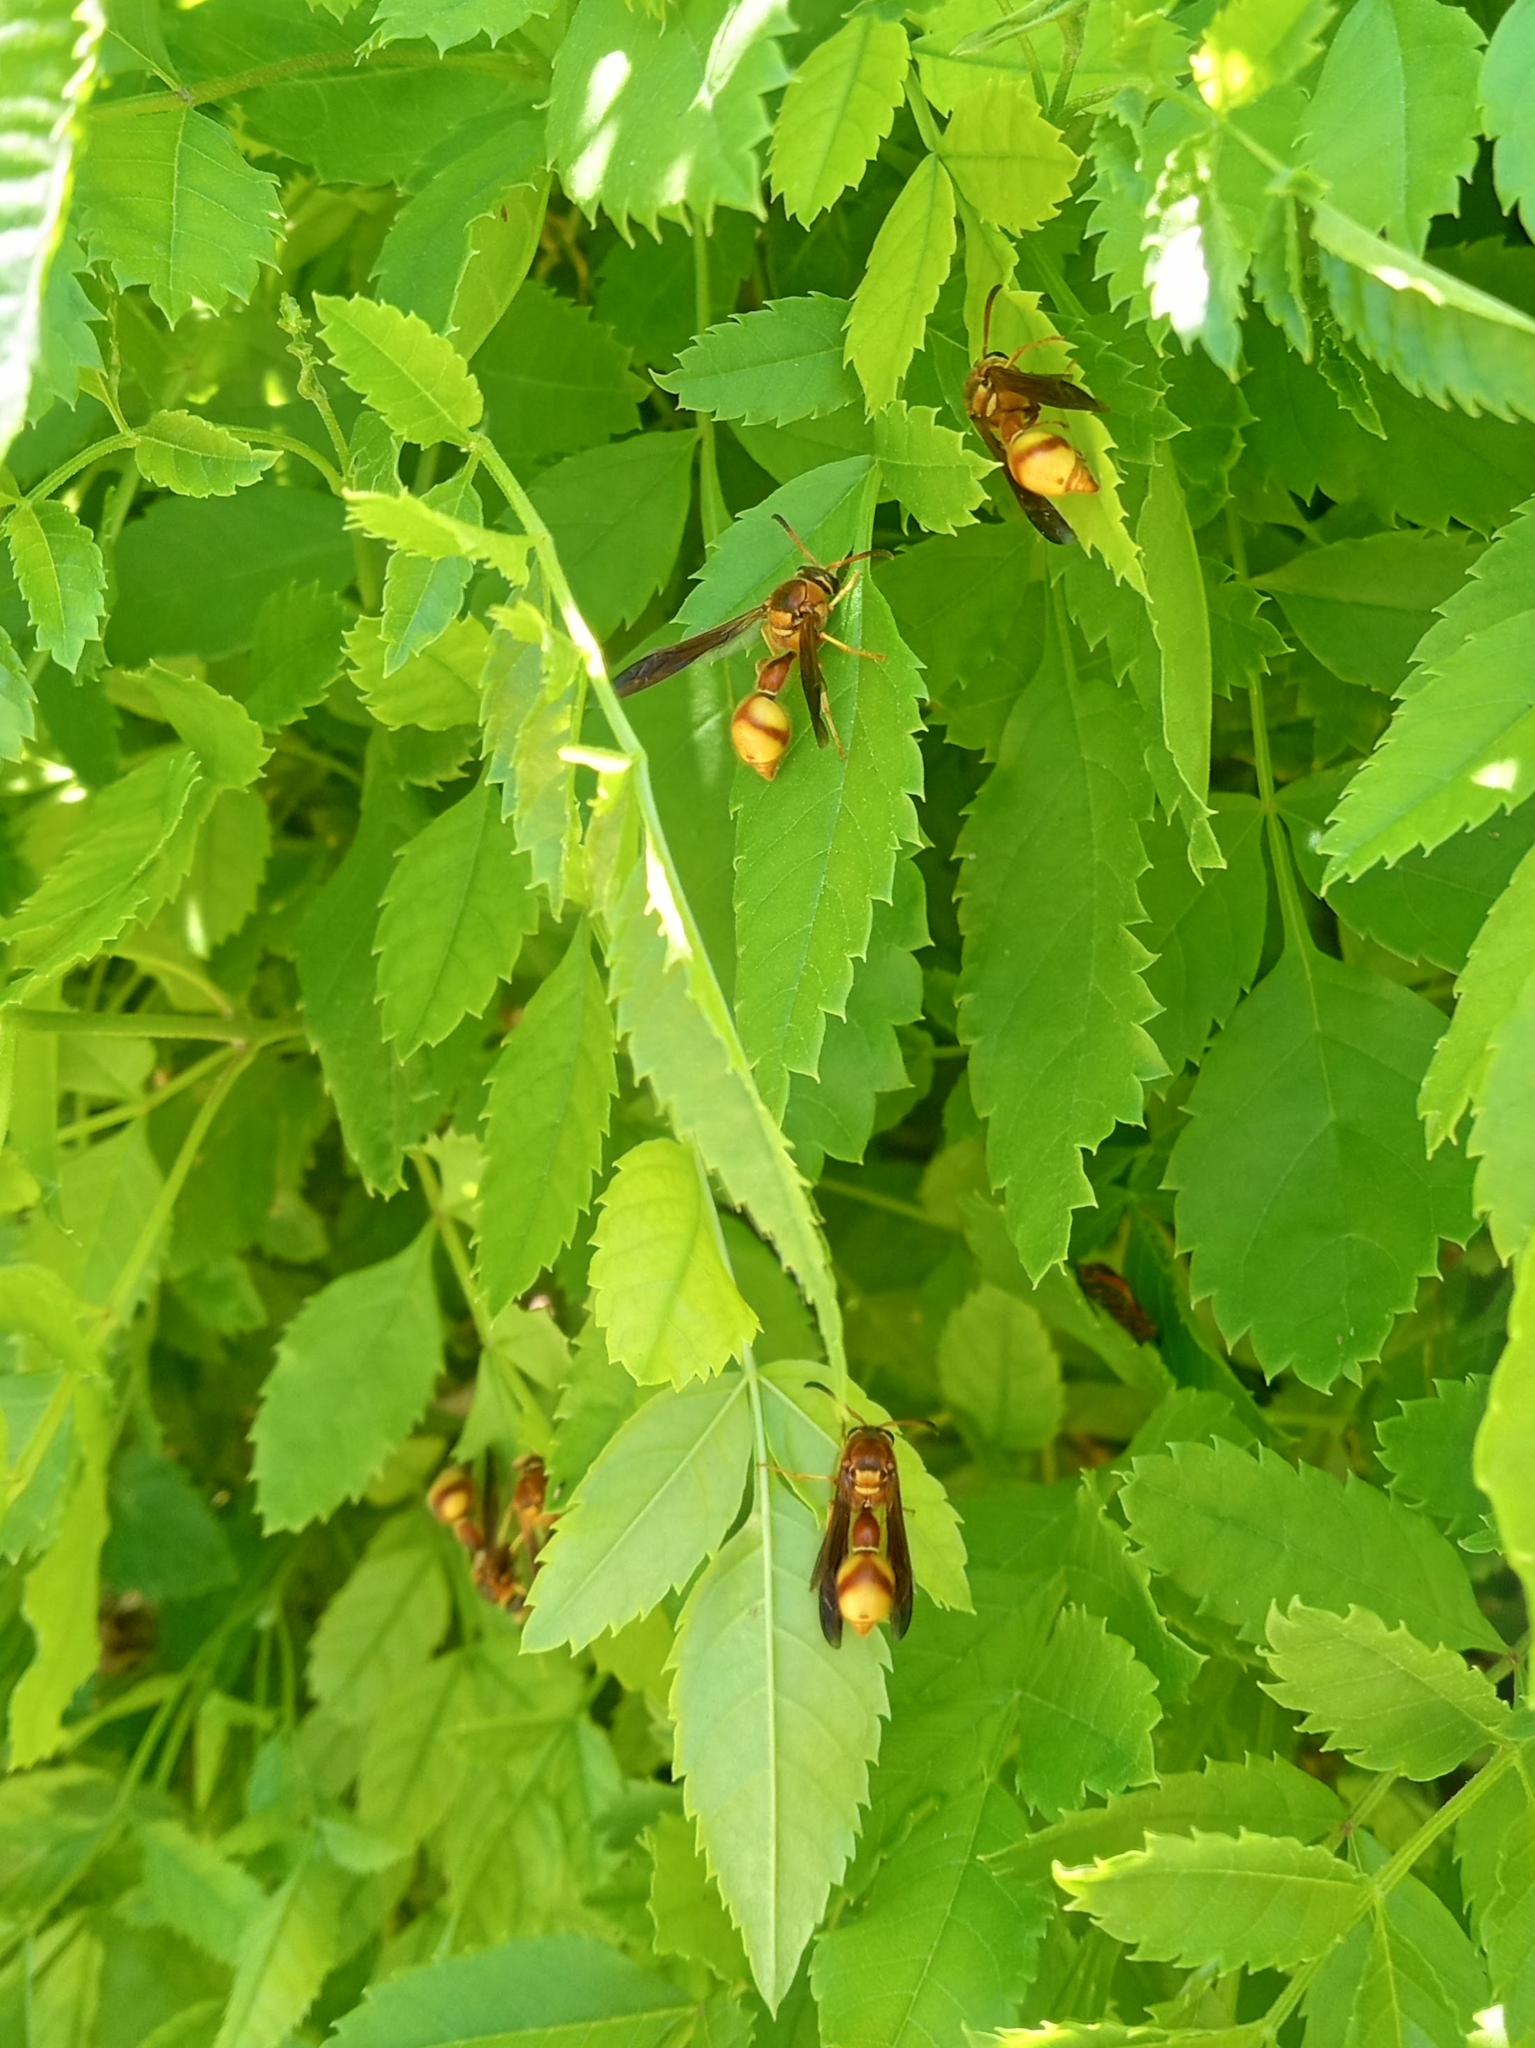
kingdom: Animalia
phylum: Arthropoda
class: Insecta
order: Hymenoptera
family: Vespidae
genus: Eumenes
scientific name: Eumenes bollii
